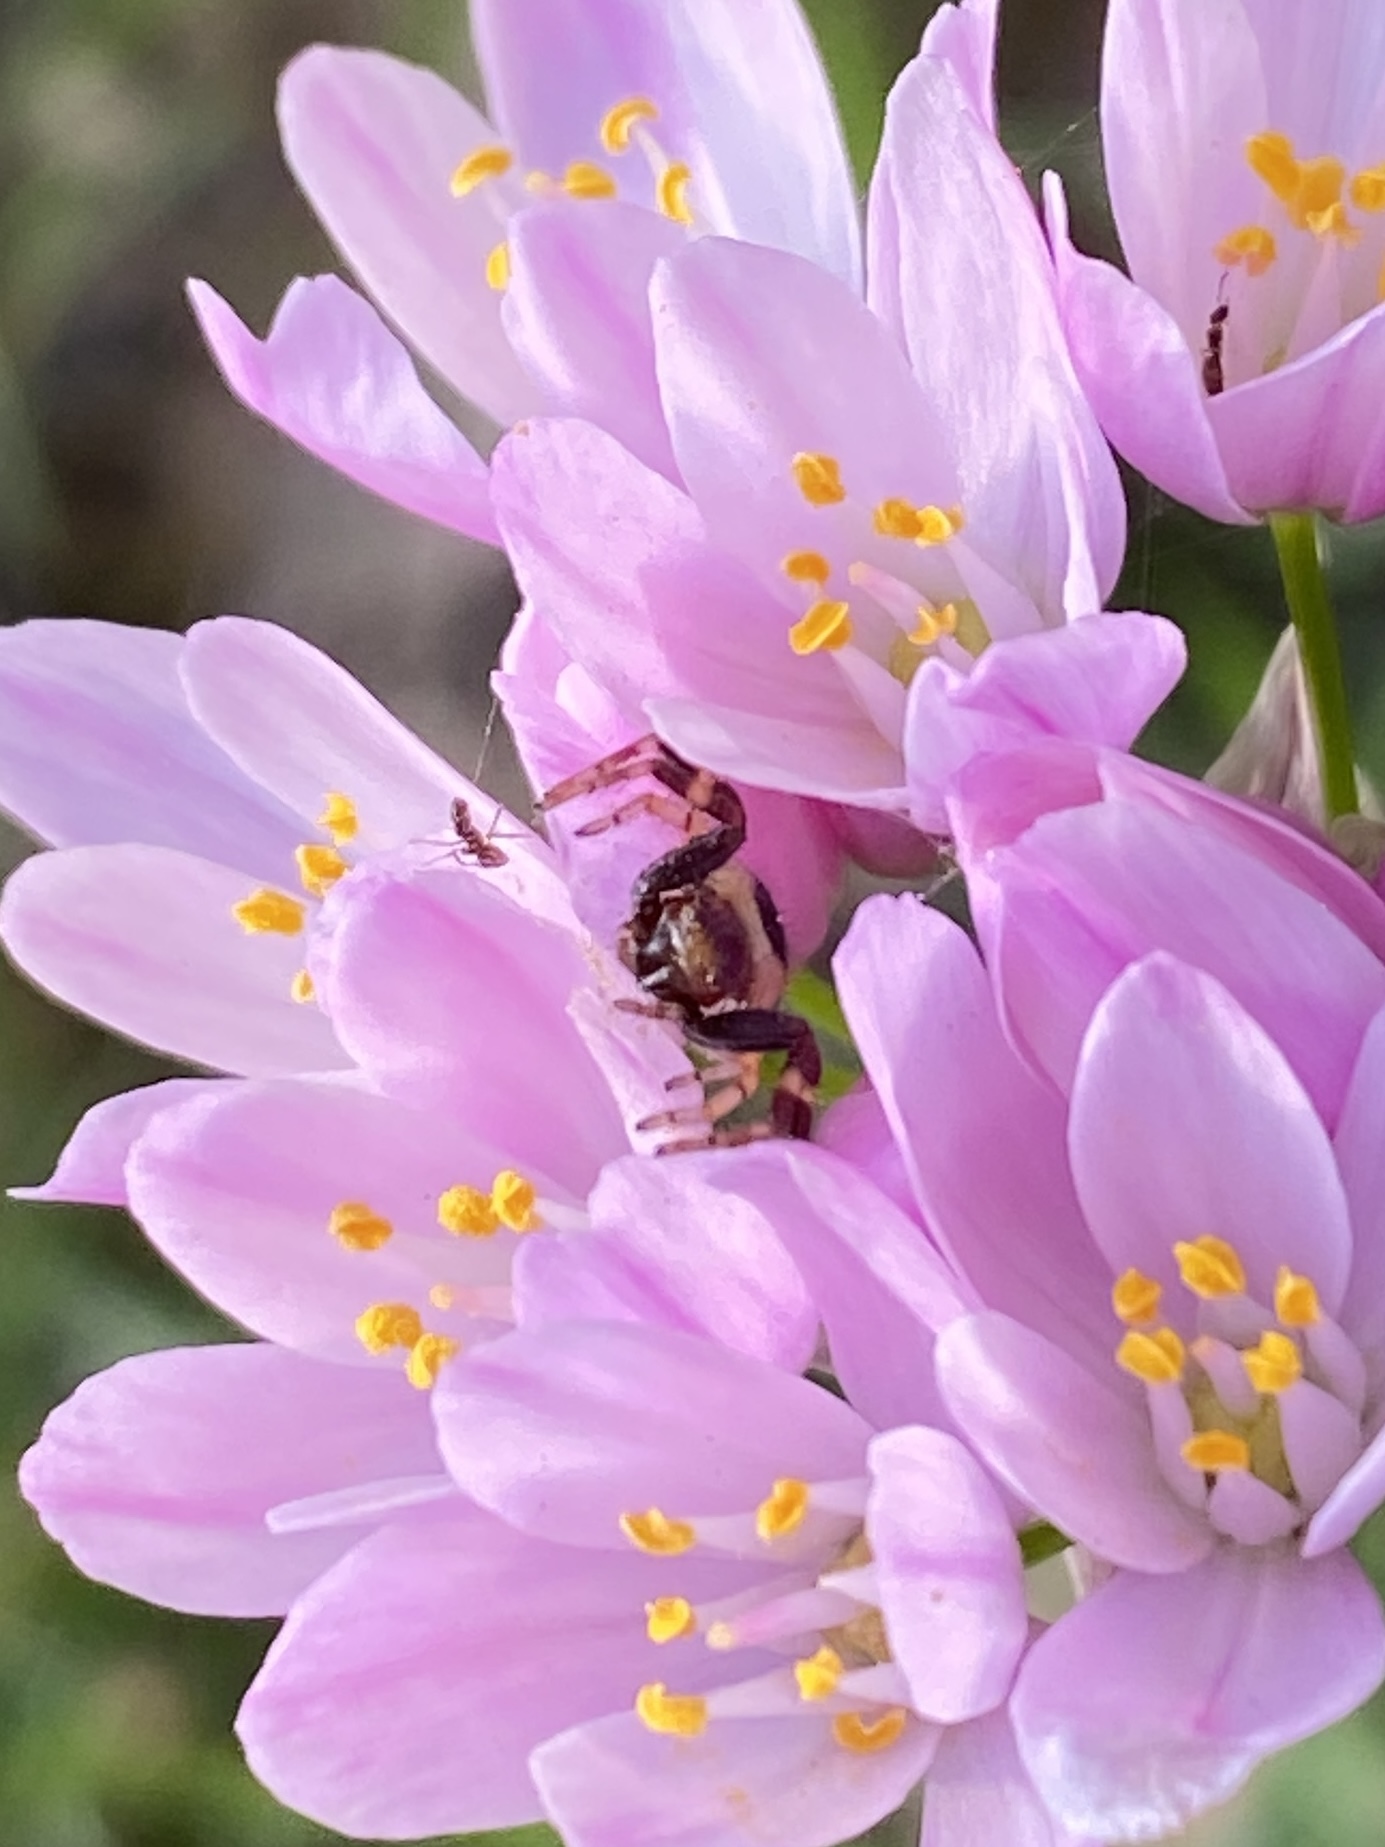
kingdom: Animalia
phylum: Arthropoda
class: Arachnida
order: Araneae
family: Thomisidae
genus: Synema
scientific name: Synema globosum
